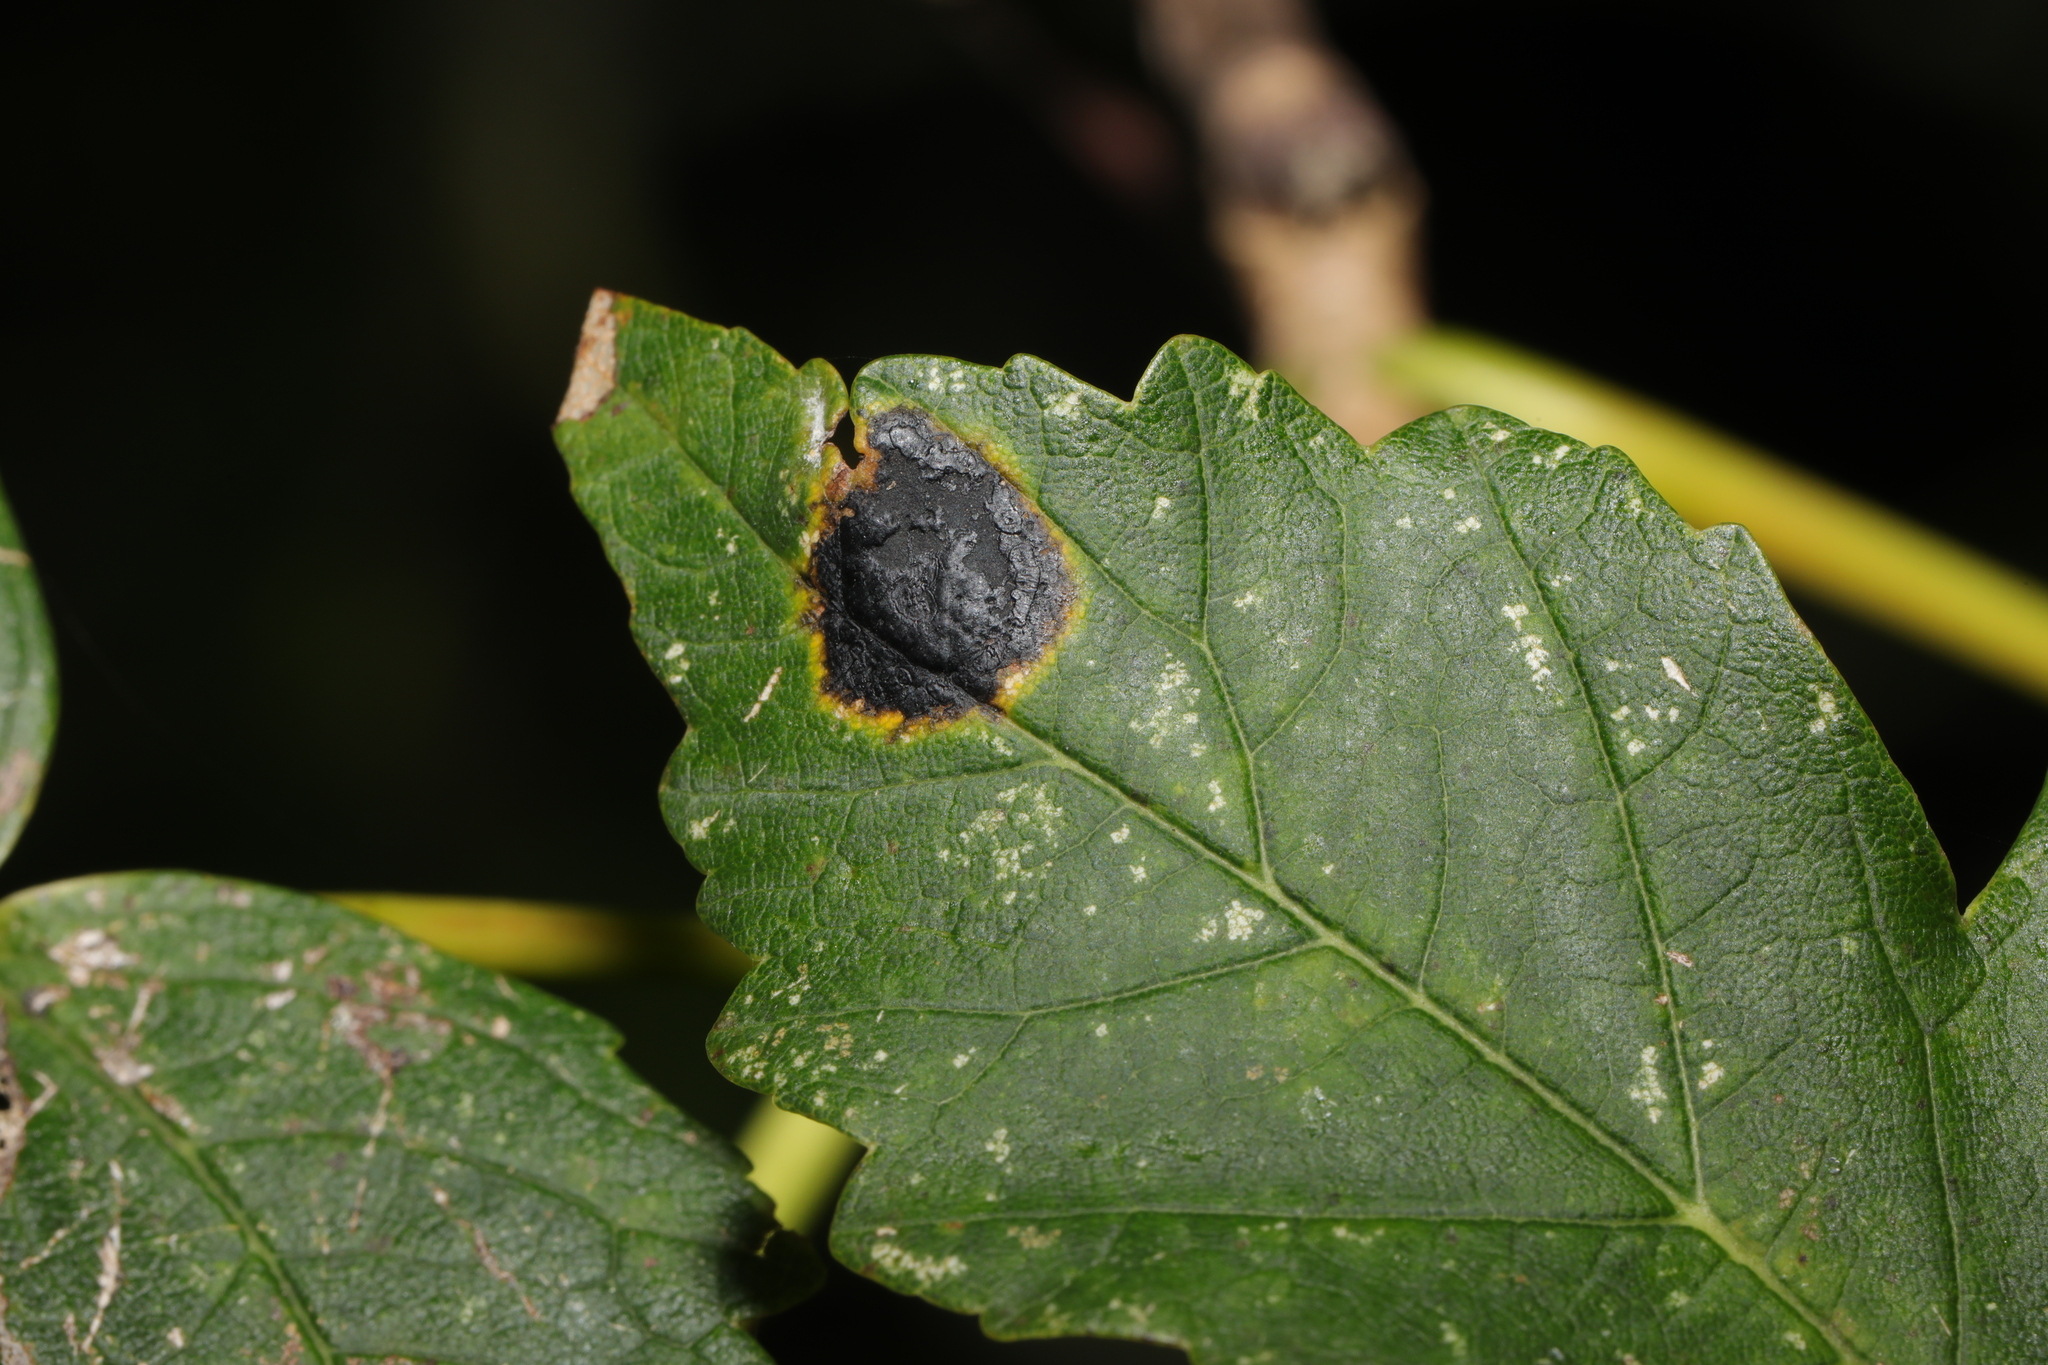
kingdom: Fungi
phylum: Ascomycota
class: Leotiomycetes
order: Rhytismatales
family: Rhytismataceae
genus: Rhytisma
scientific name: Rhytisma acerinum
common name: European tar spot
